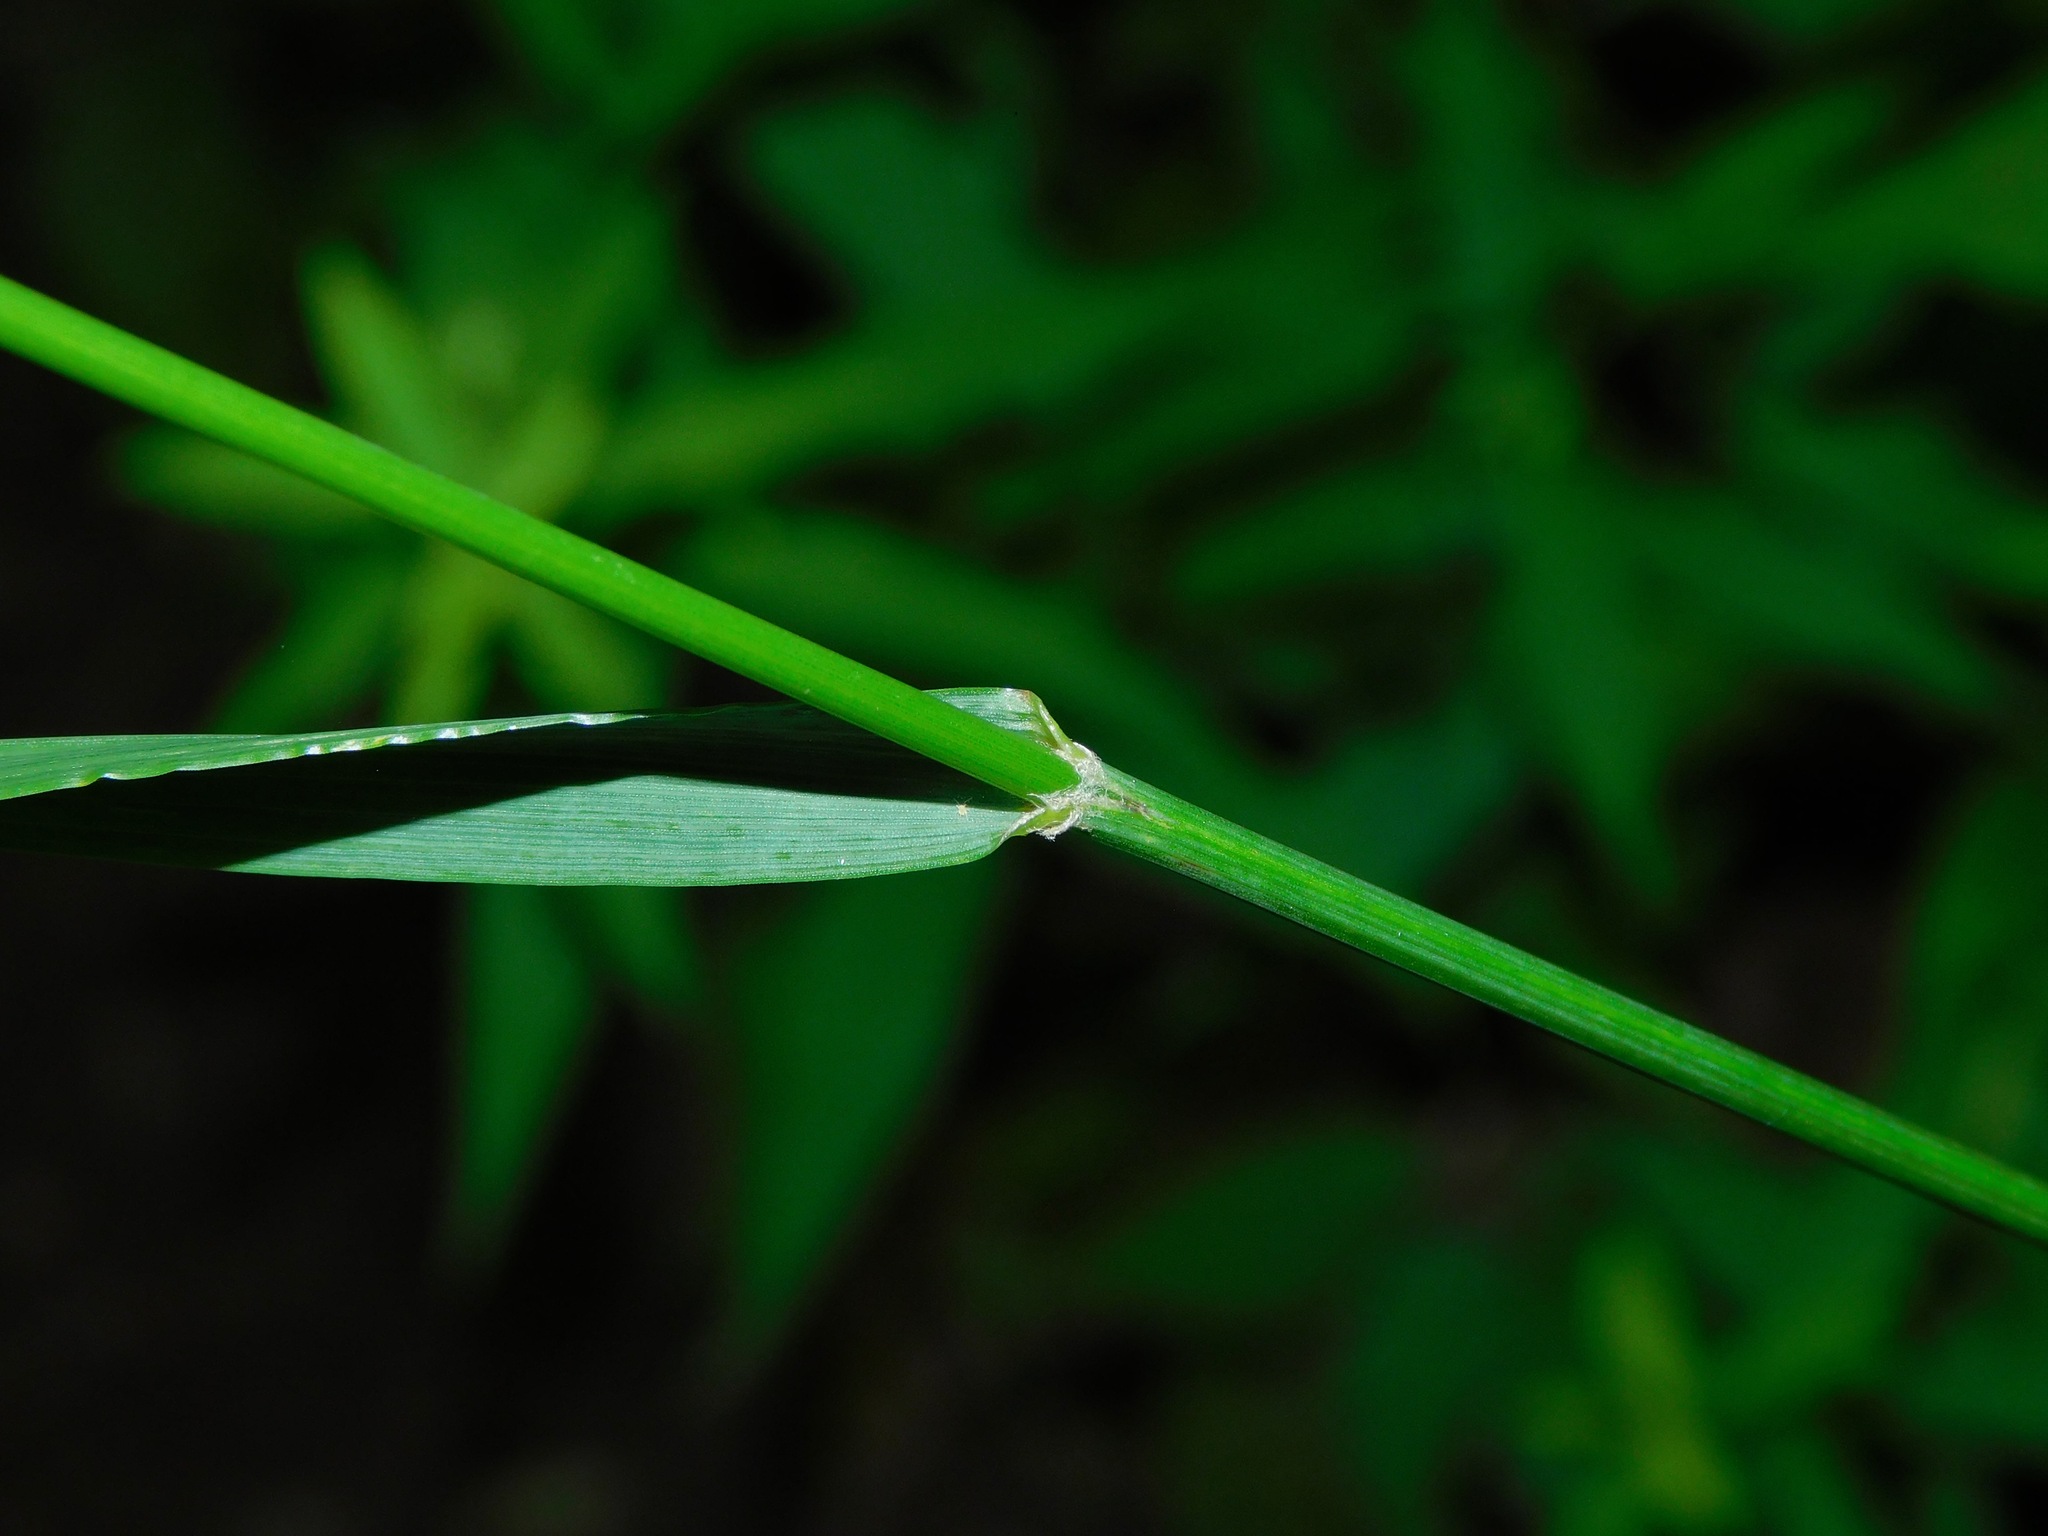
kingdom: Plantae
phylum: Tracheophyta
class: Liliopsida
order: Poales
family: Poaceae
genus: Bromus
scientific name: Bromus nottowayanus
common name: Nottoway valley brome
